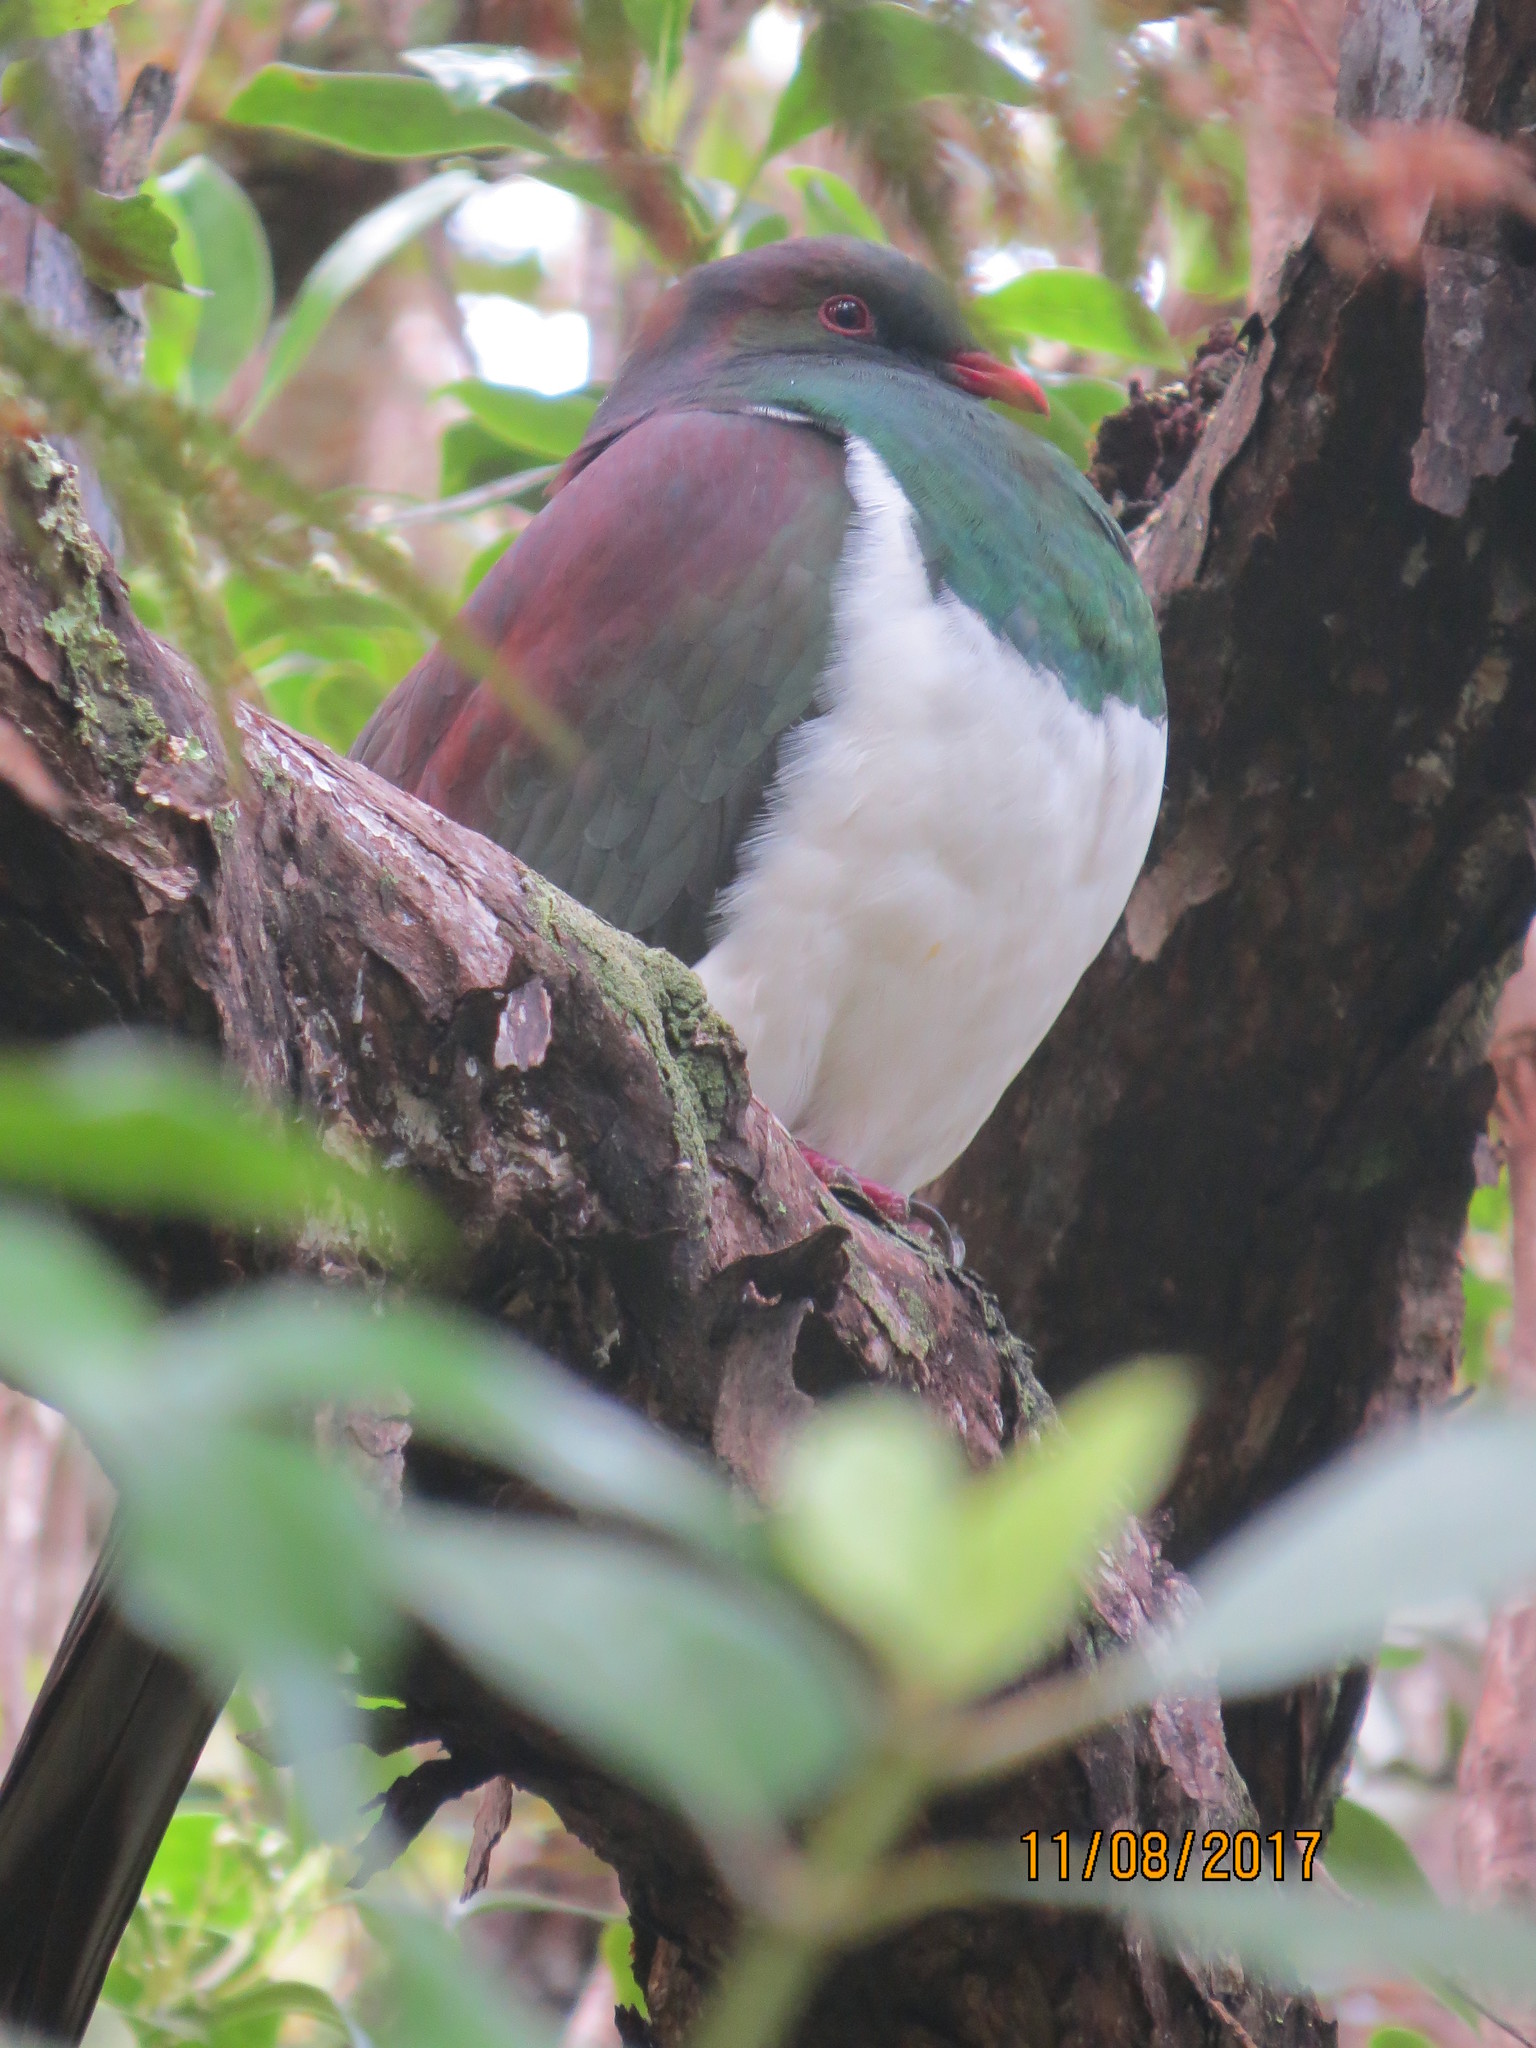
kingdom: Animalia
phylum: Chordata
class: Aves
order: Columbiformes
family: Columbidae
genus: Hemiphaga
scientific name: Hemiphaga novaeseelandiae
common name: New zealand pigeon
